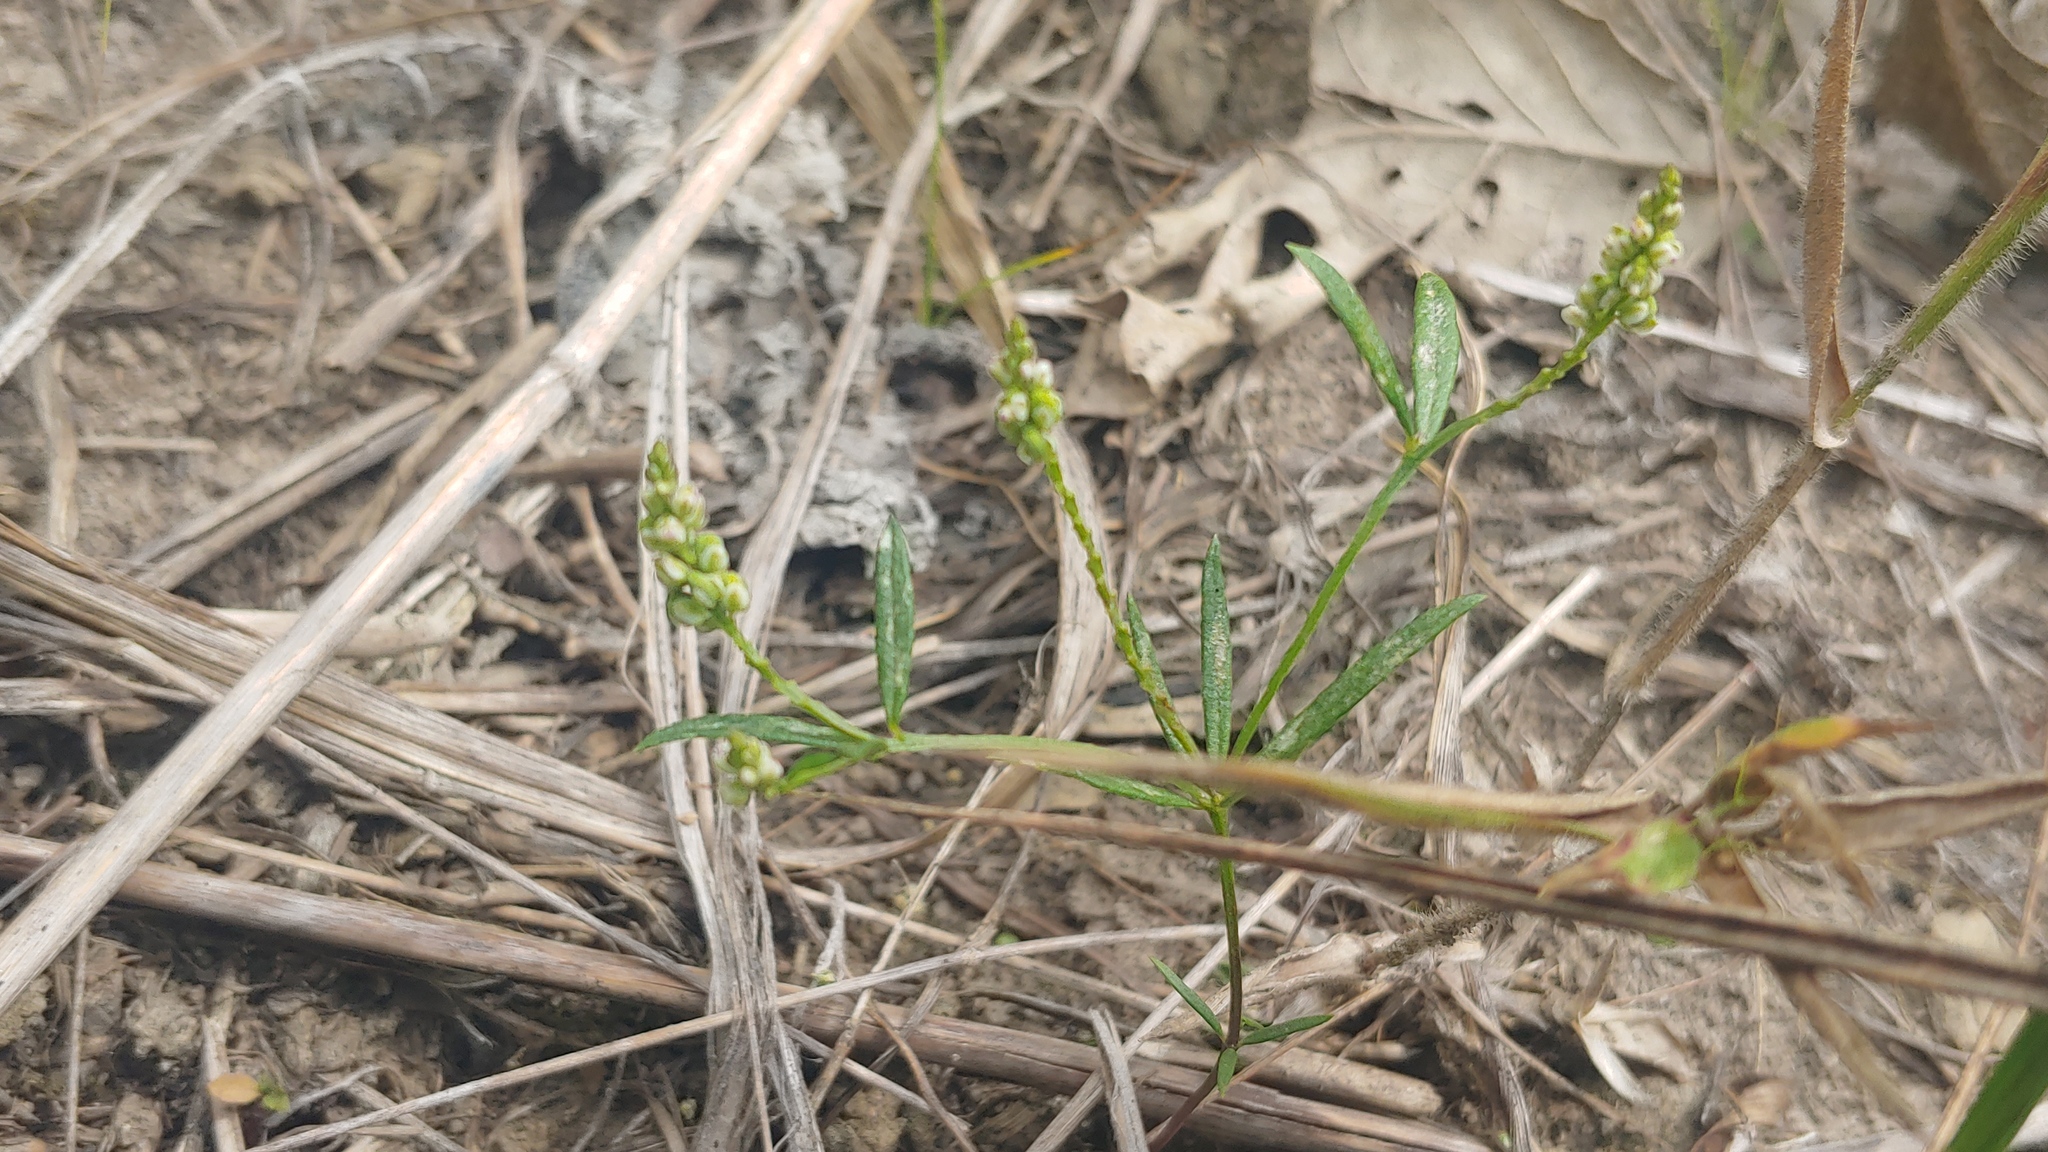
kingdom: Plantae
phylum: Tracheophyta
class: Magnoliopsida
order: Fabales
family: Polygalaceae
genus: Polygala
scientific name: Polygala verticillata
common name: Whorl milkwort
